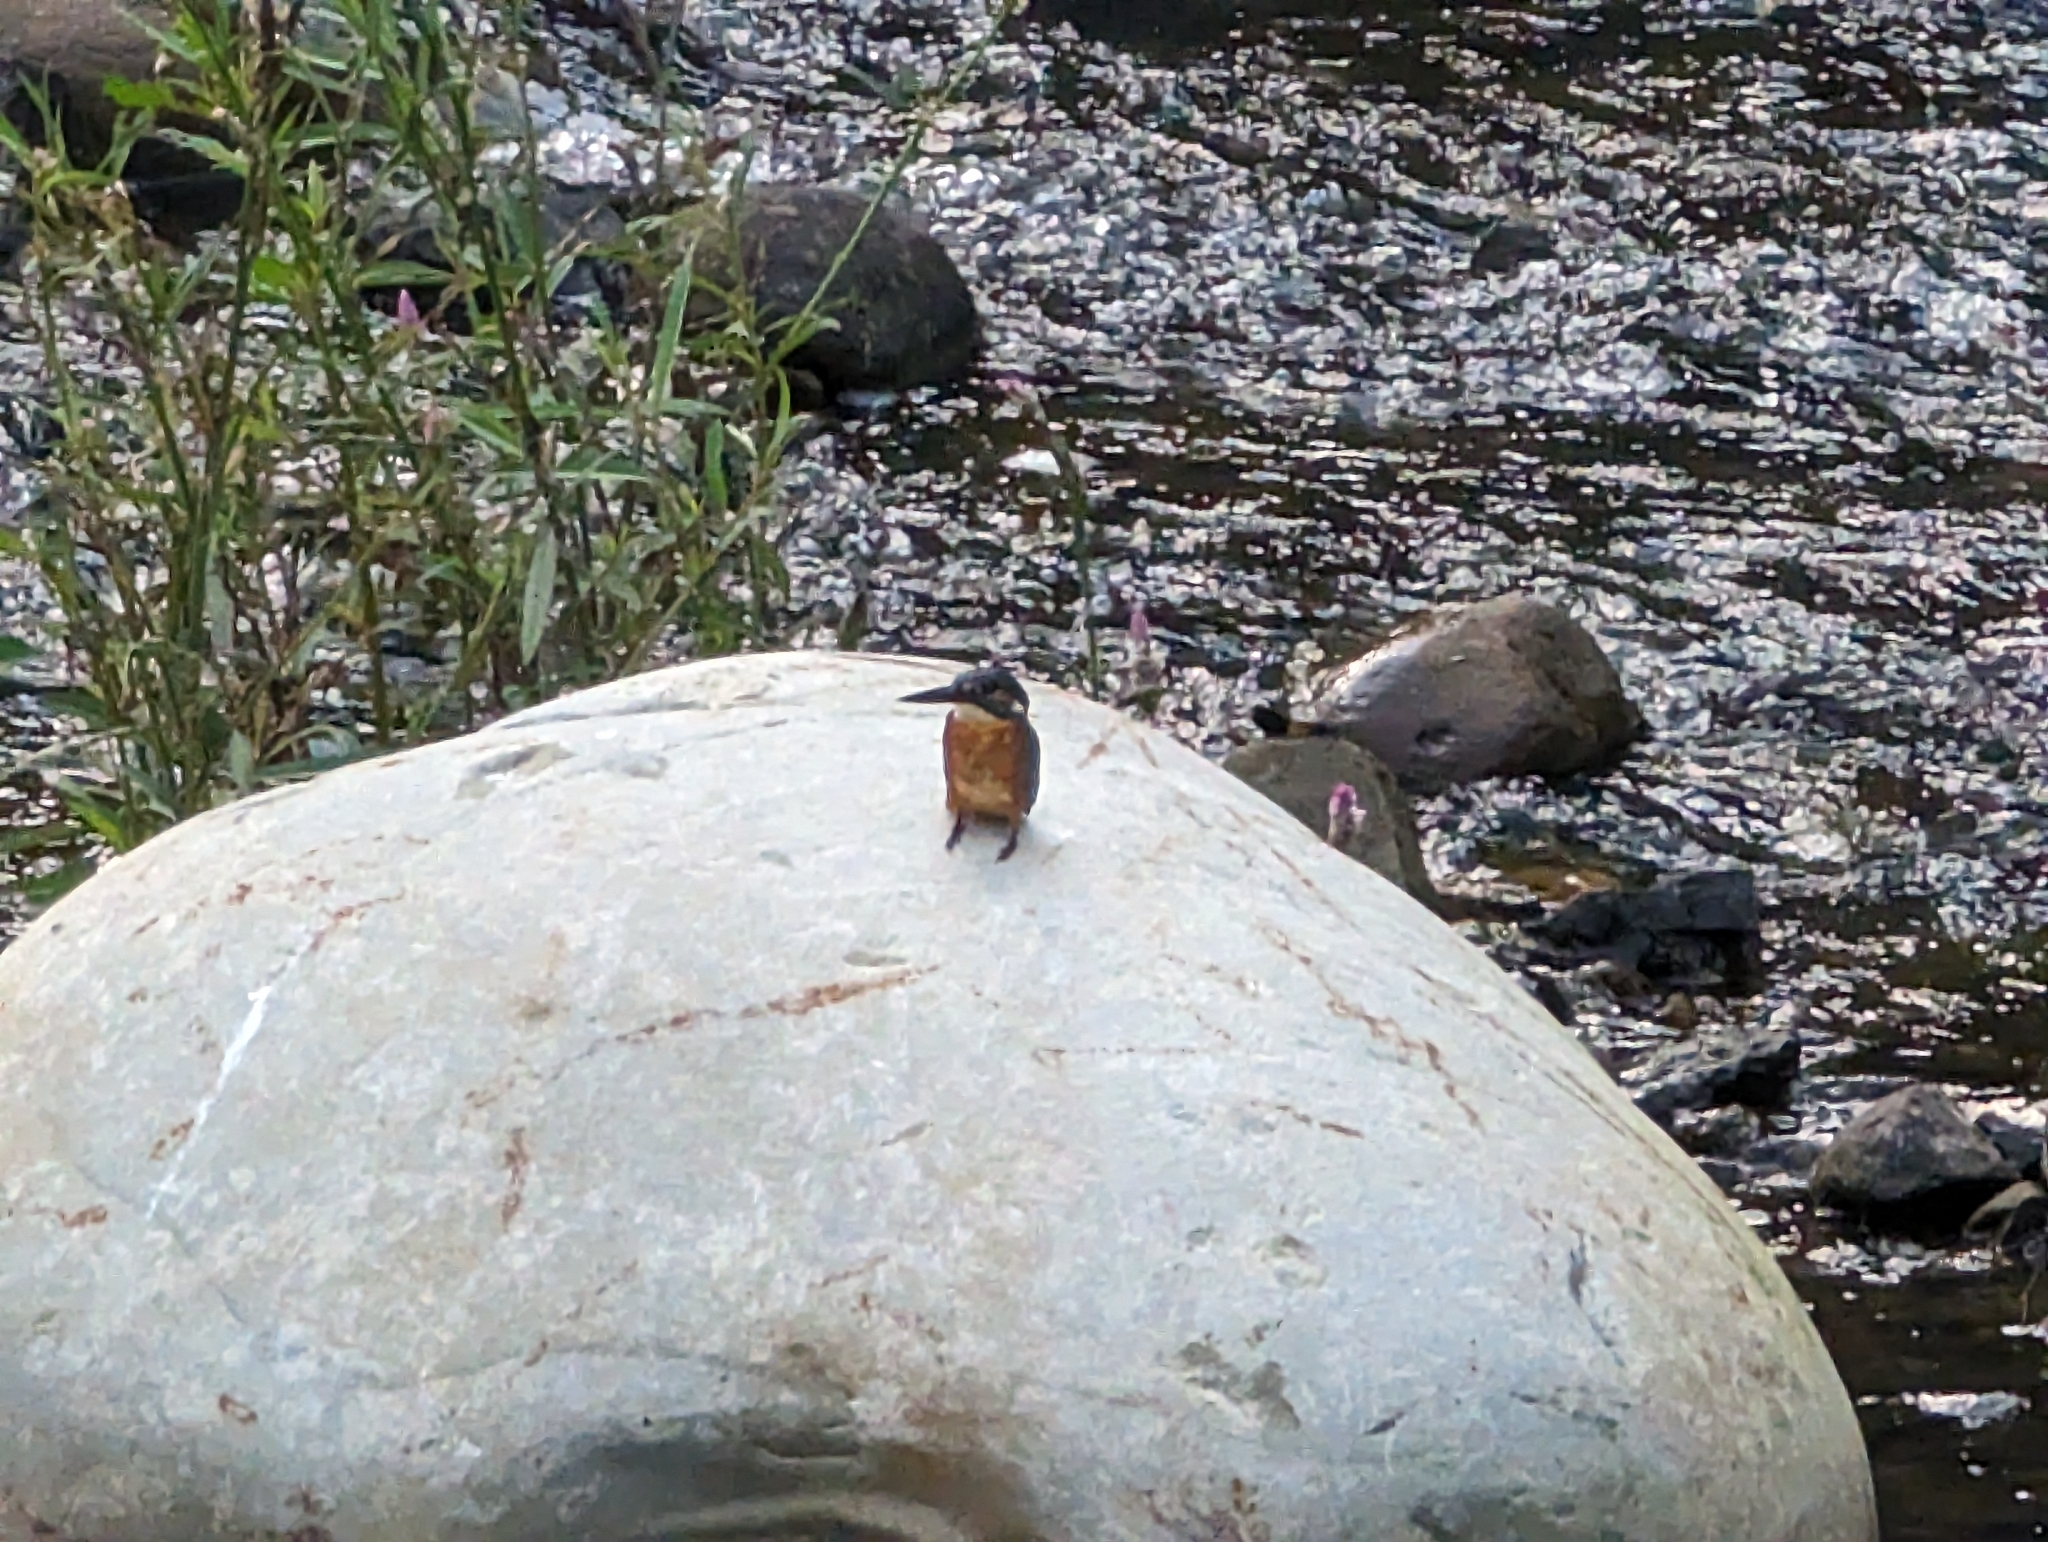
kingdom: Animalia
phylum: Chordata
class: Aves
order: Coraciiformes
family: Alcedinidae
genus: Alcedo
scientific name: Alcedo atthis
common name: Common kingfisher
